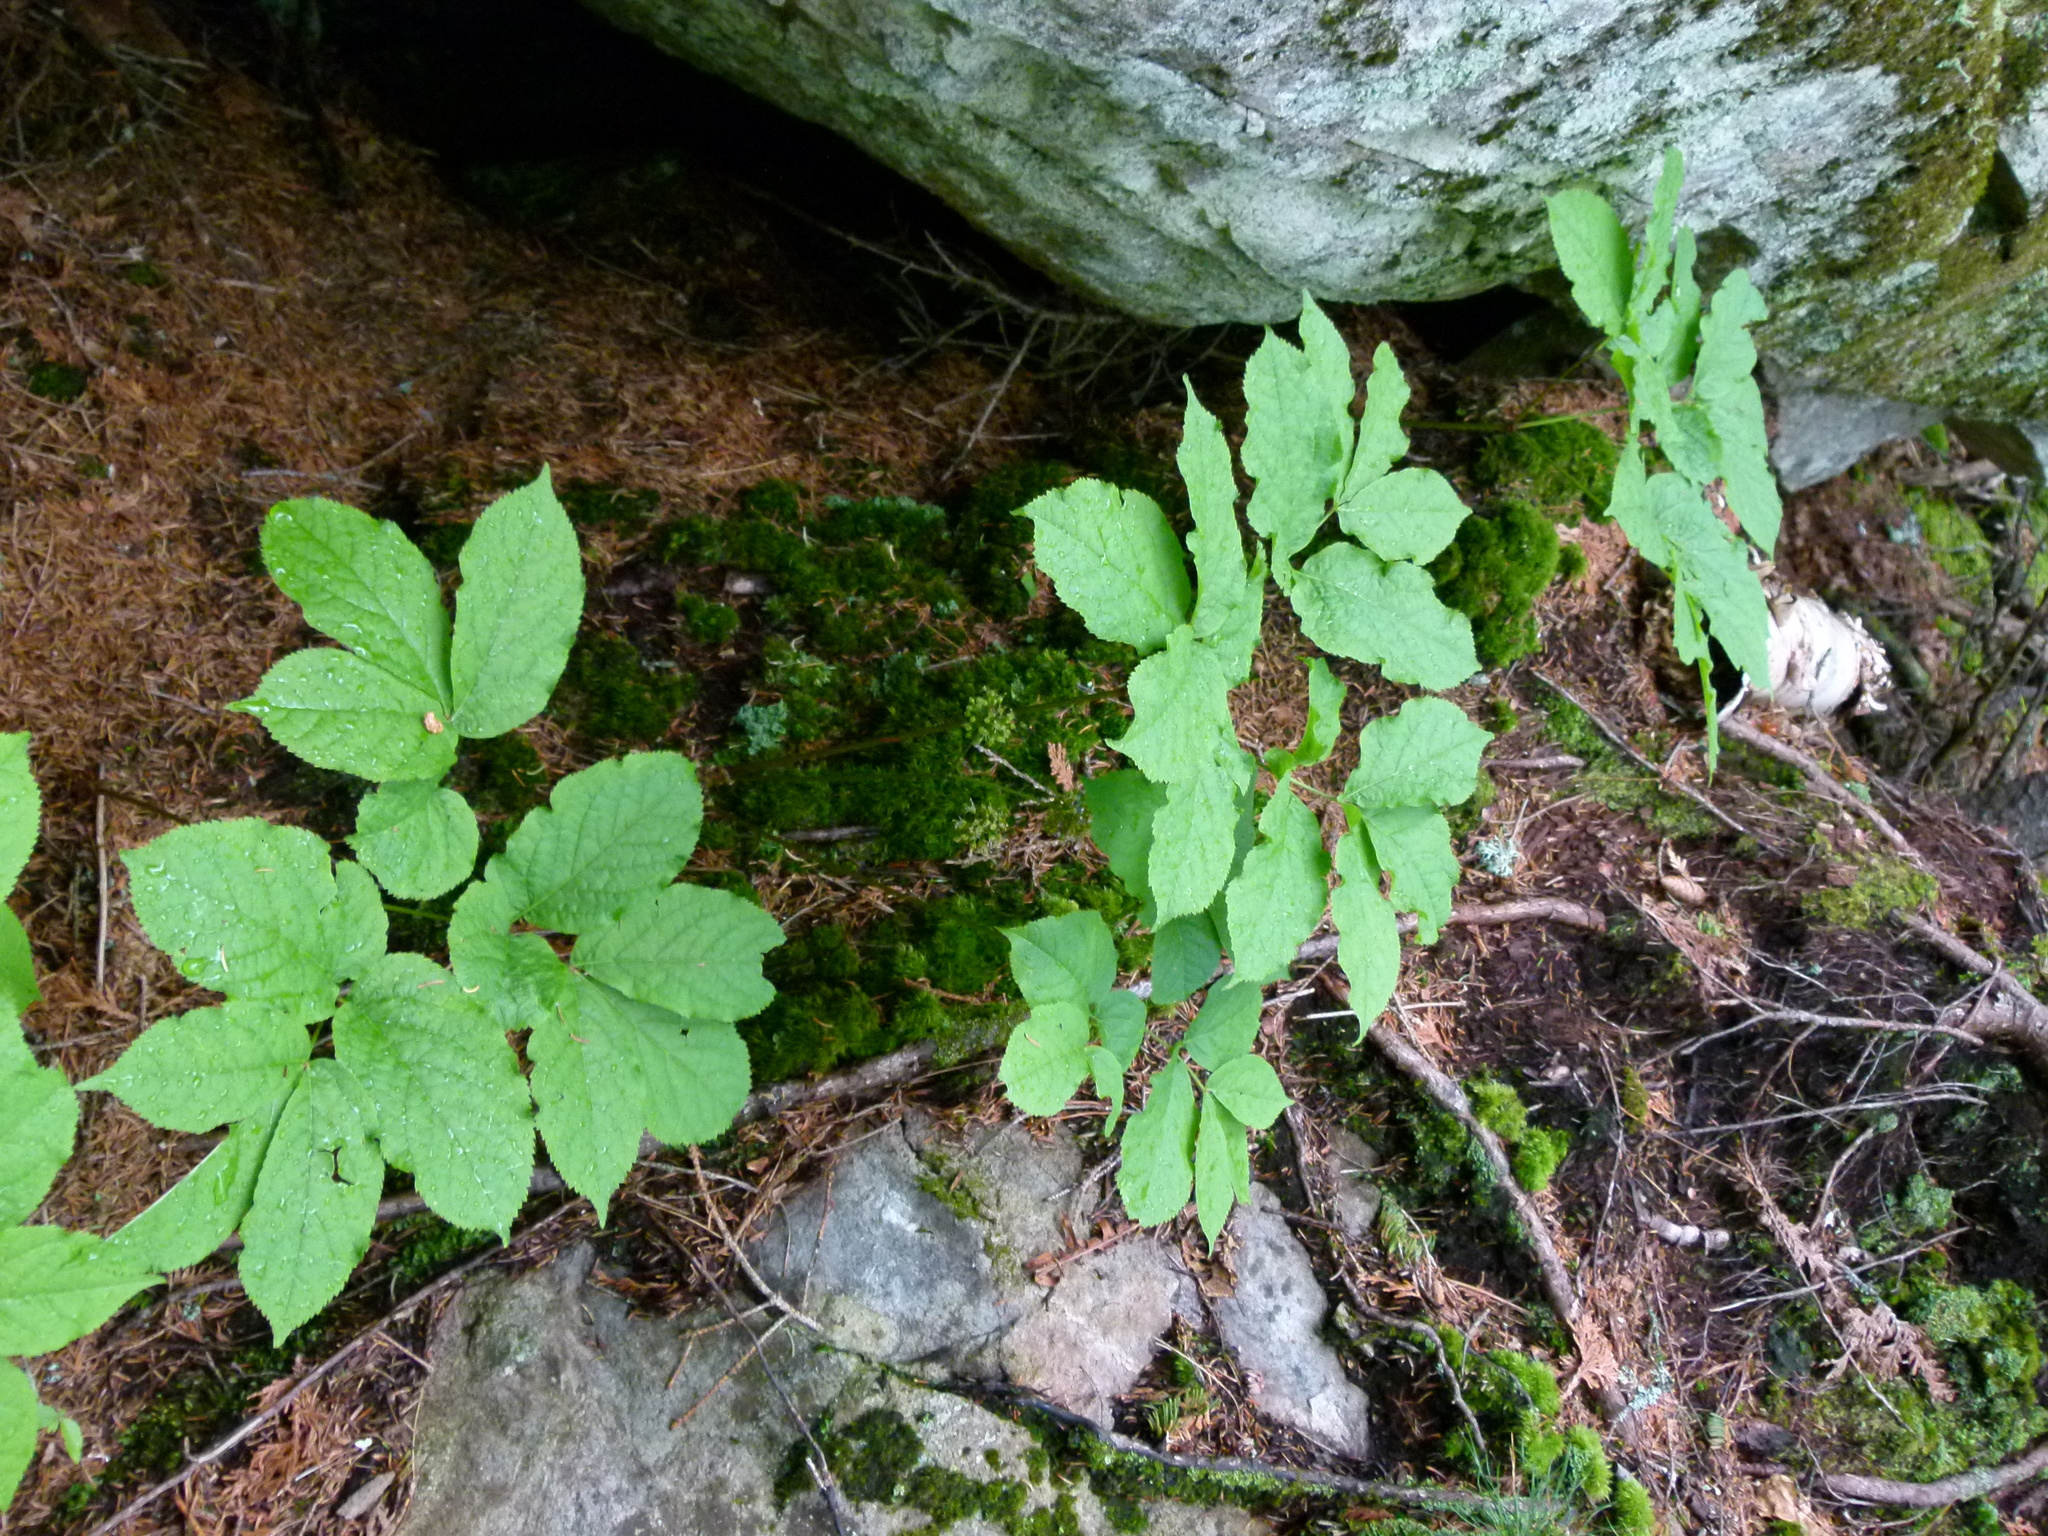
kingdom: Plantae
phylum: Tracheophyta
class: Magnoliopsida
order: Apiales
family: Araliaceae
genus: Aralia
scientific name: Aralia nudicaulis
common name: Wild sarsaparilla
